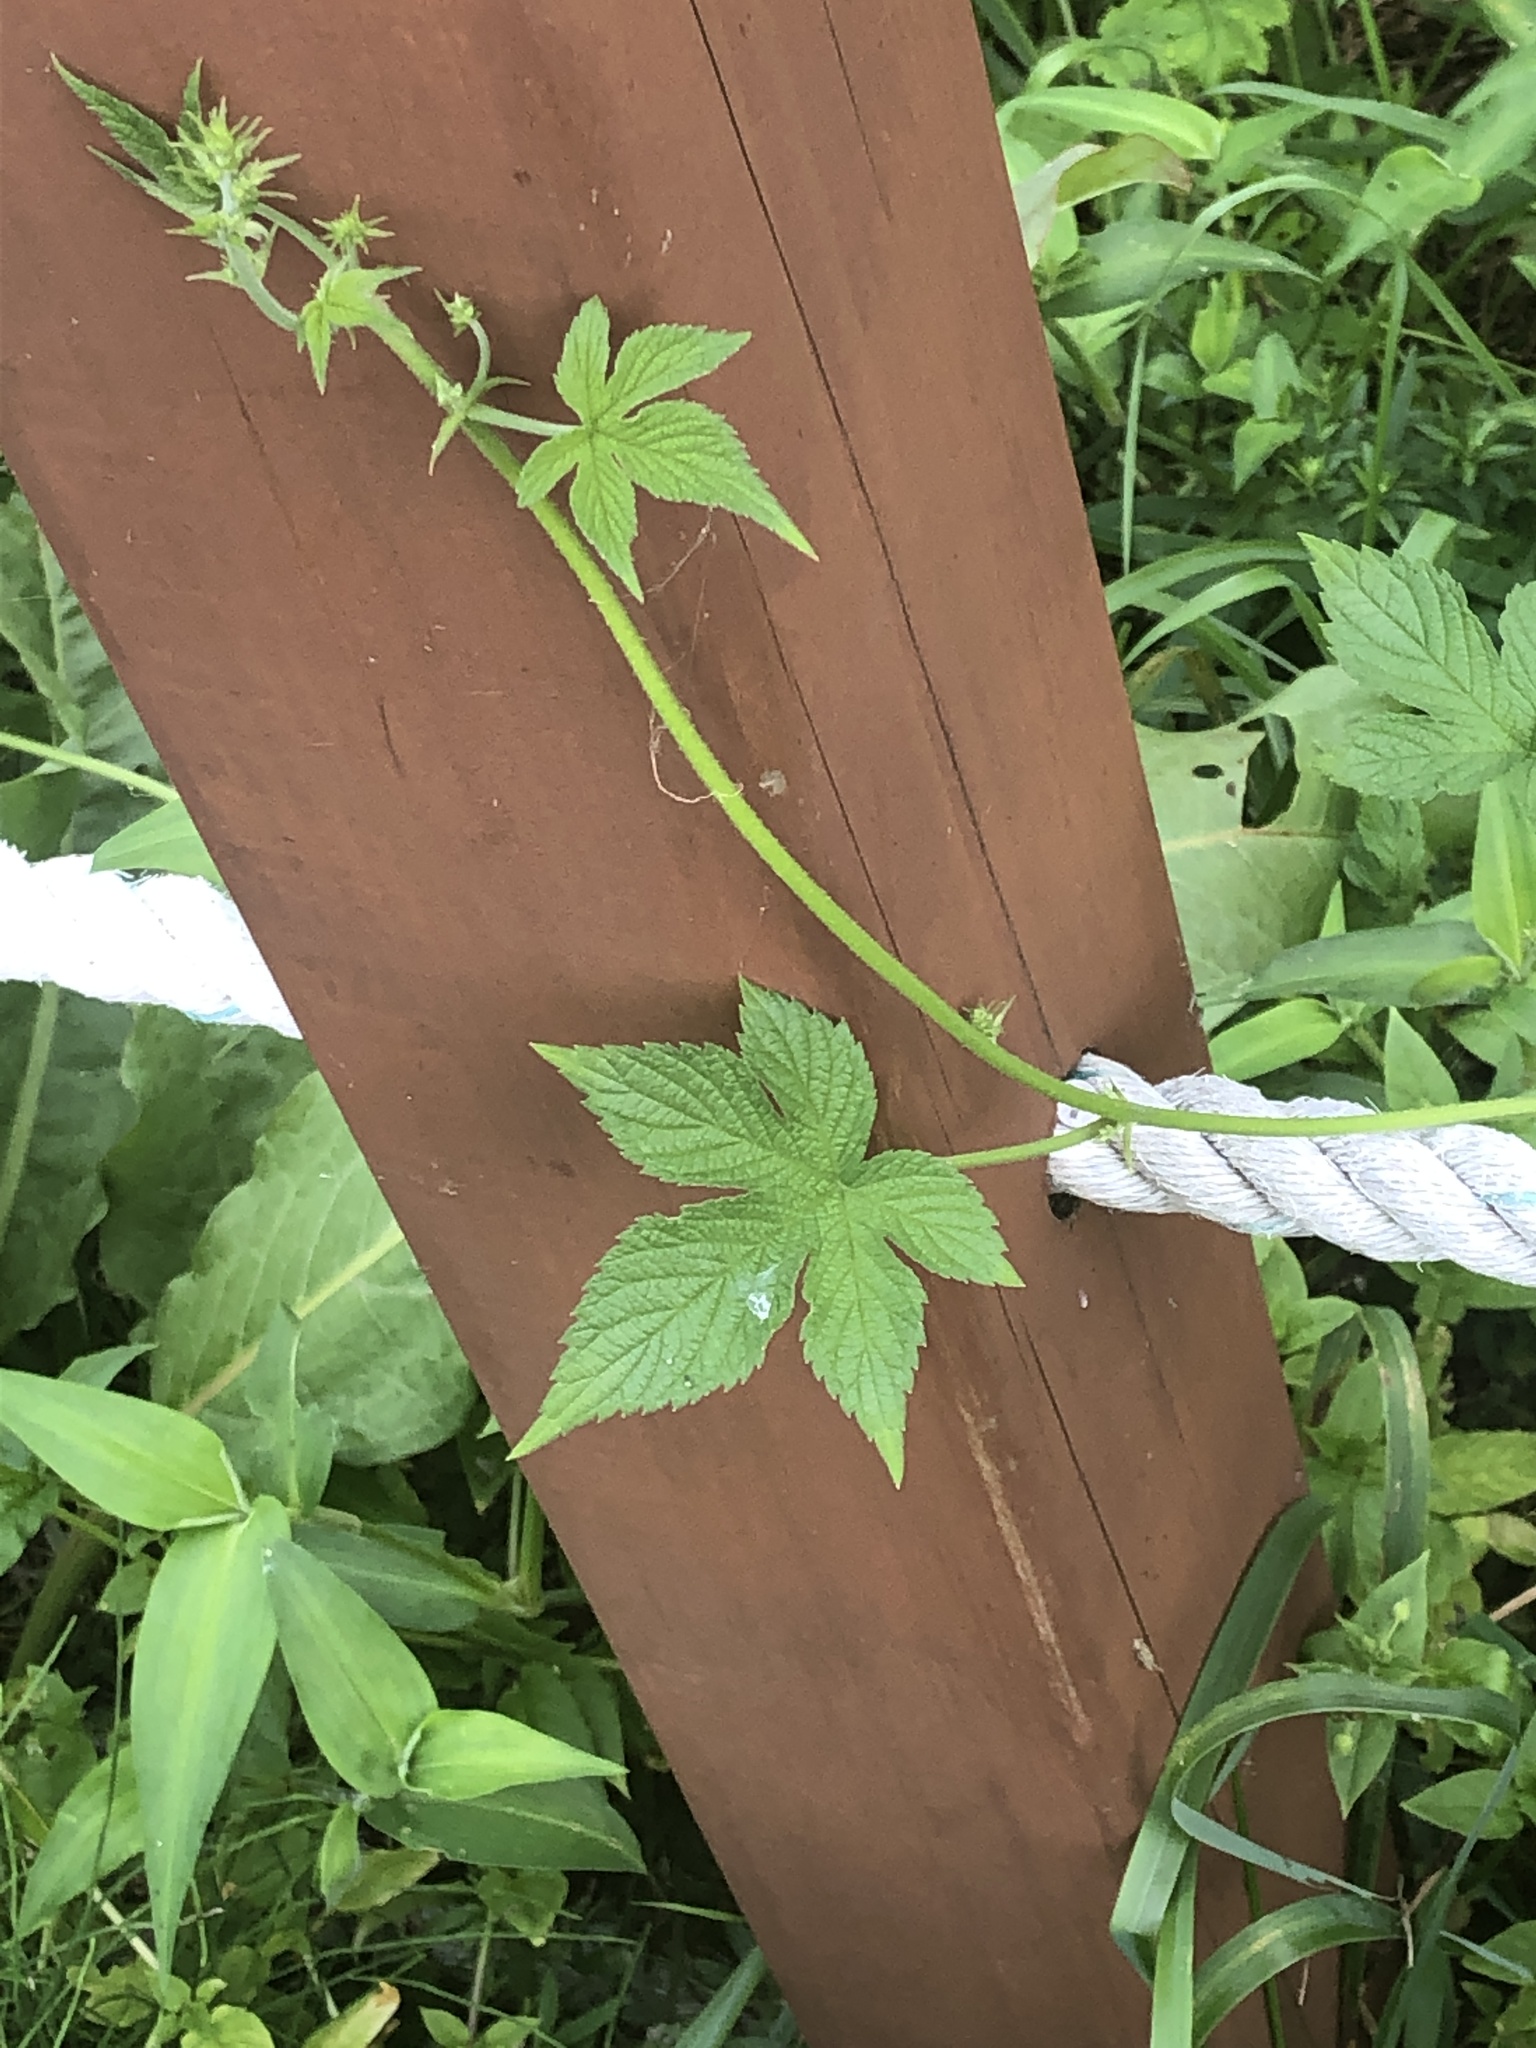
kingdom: Plantae
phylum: Tracheophyta
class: Magnoliopsida
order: Rosales
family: Cannabaceae
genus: Humulus
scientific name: Humulus scandens
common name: Japanese hop
